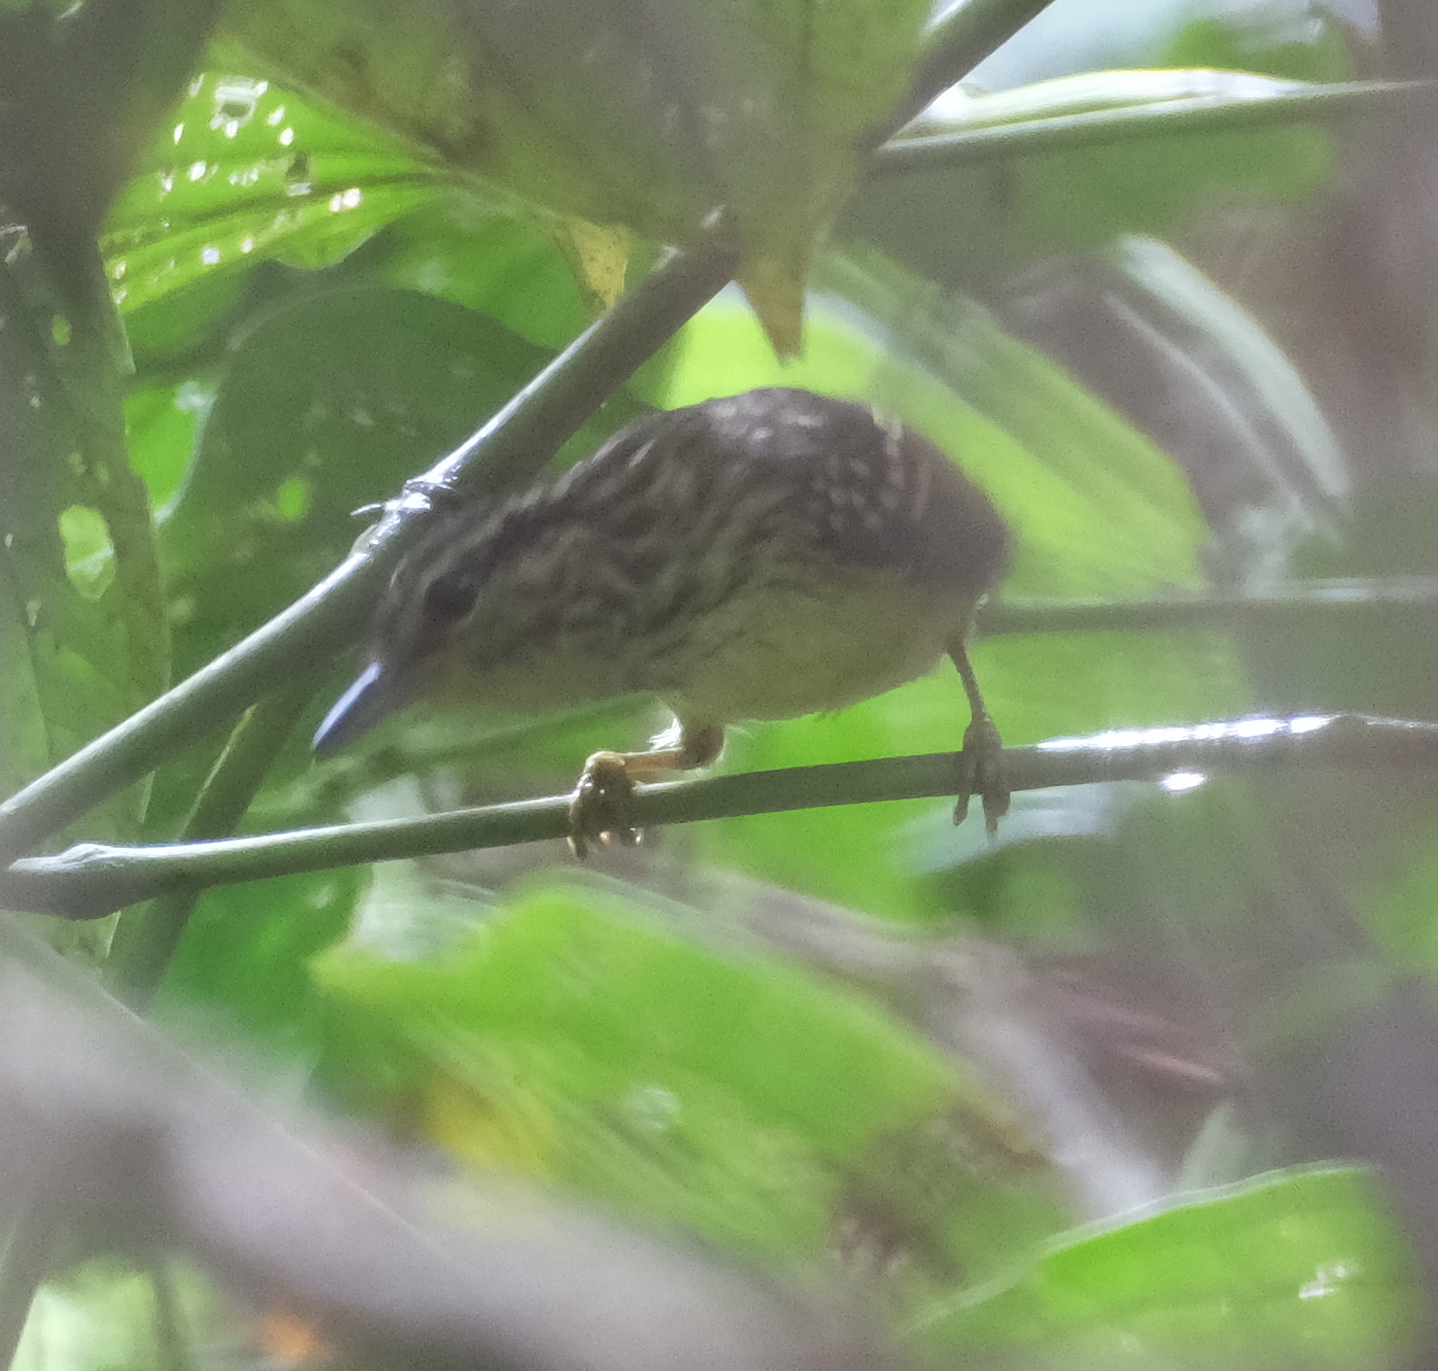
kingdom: Animalia
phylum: Chordata
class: Aves
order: Passeriformes
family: Thamnophilidae
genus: Hypocnemis
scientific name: Hypocnemis peruviana
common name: Peruvian warbling-antbird
